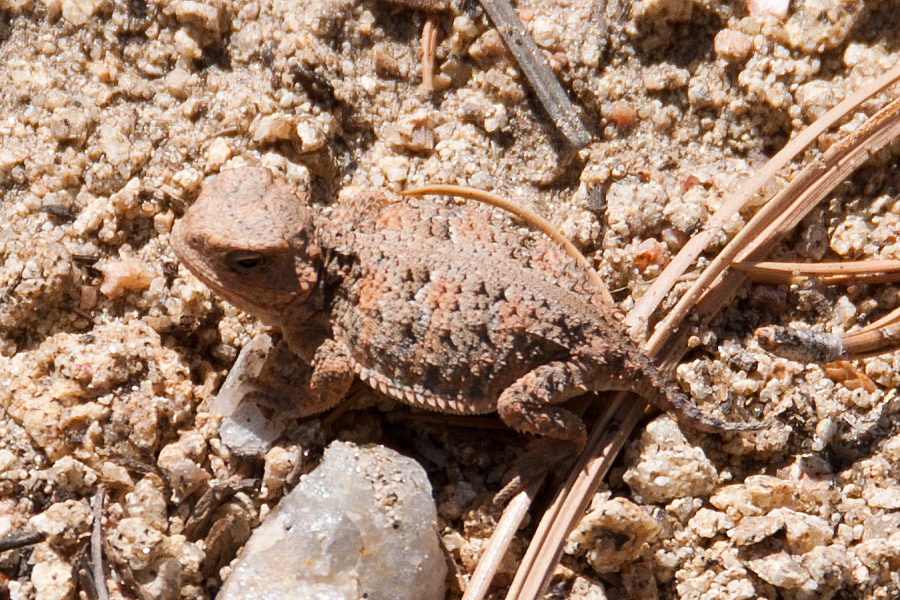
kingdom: Animalia
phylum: Chordata
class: Squamata
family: Phrynosomatidae
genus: Phrynosoma
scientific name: Phrynosoma hernandesi
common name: Greater short-horned lizard
